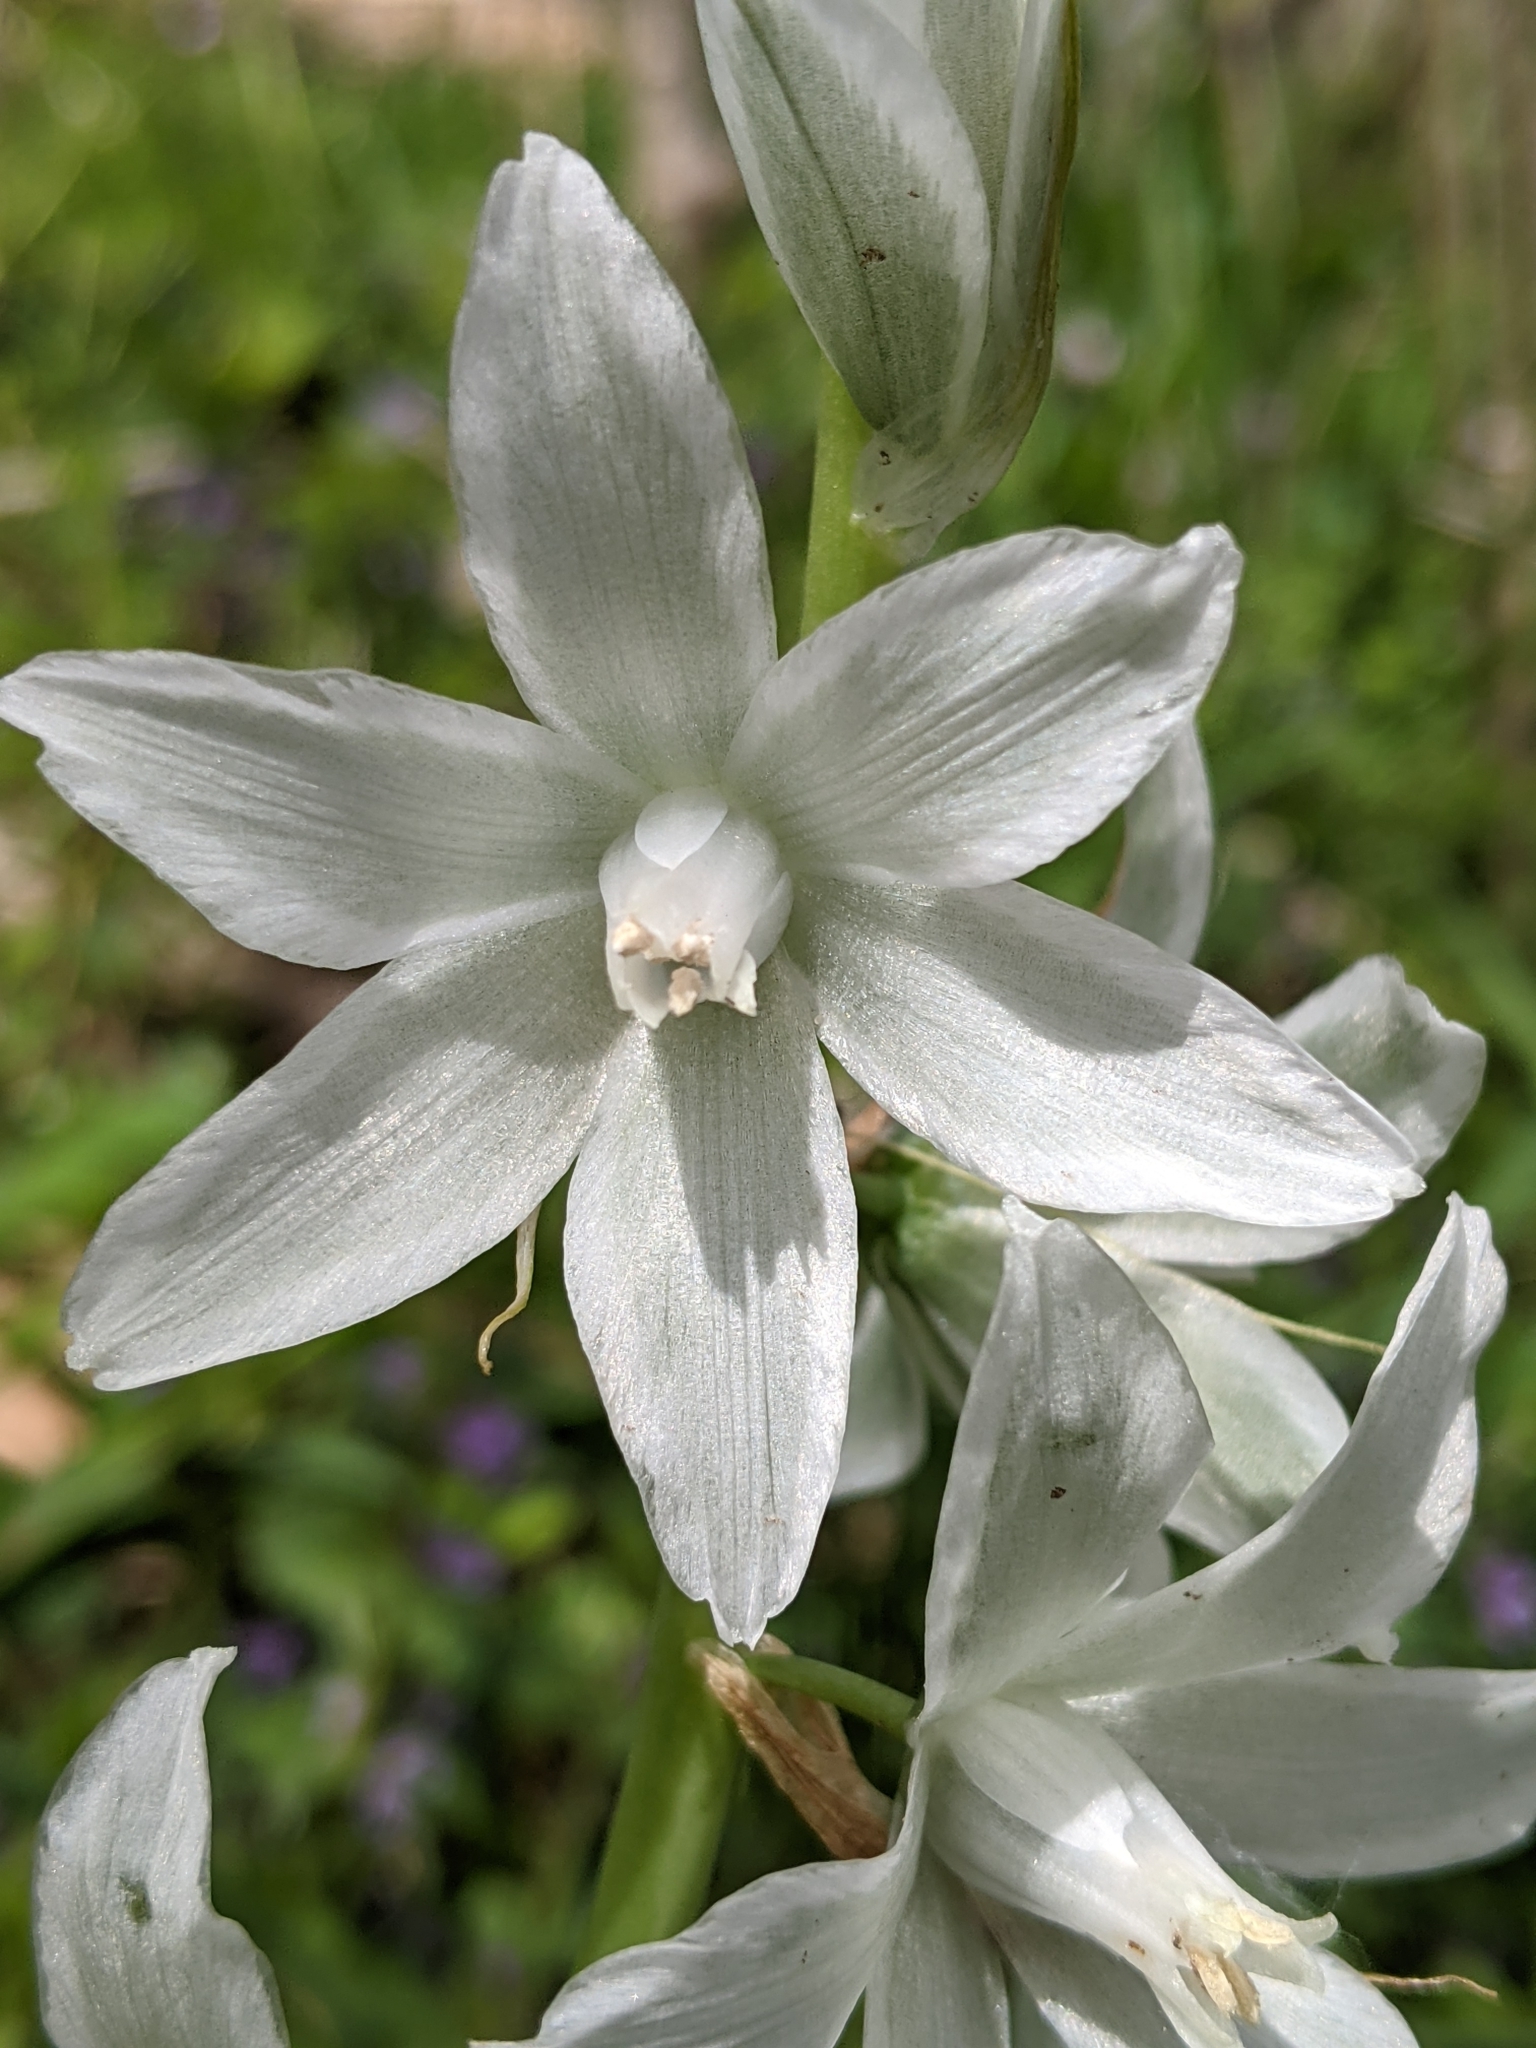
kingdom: Plantae
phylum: Tracheophyta
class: Liliopsida
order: Asparagales
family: Asparagaceae
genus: Ornithogalum
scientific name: Ornithogalum nutans
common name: Drooping star-of-bethlehem
